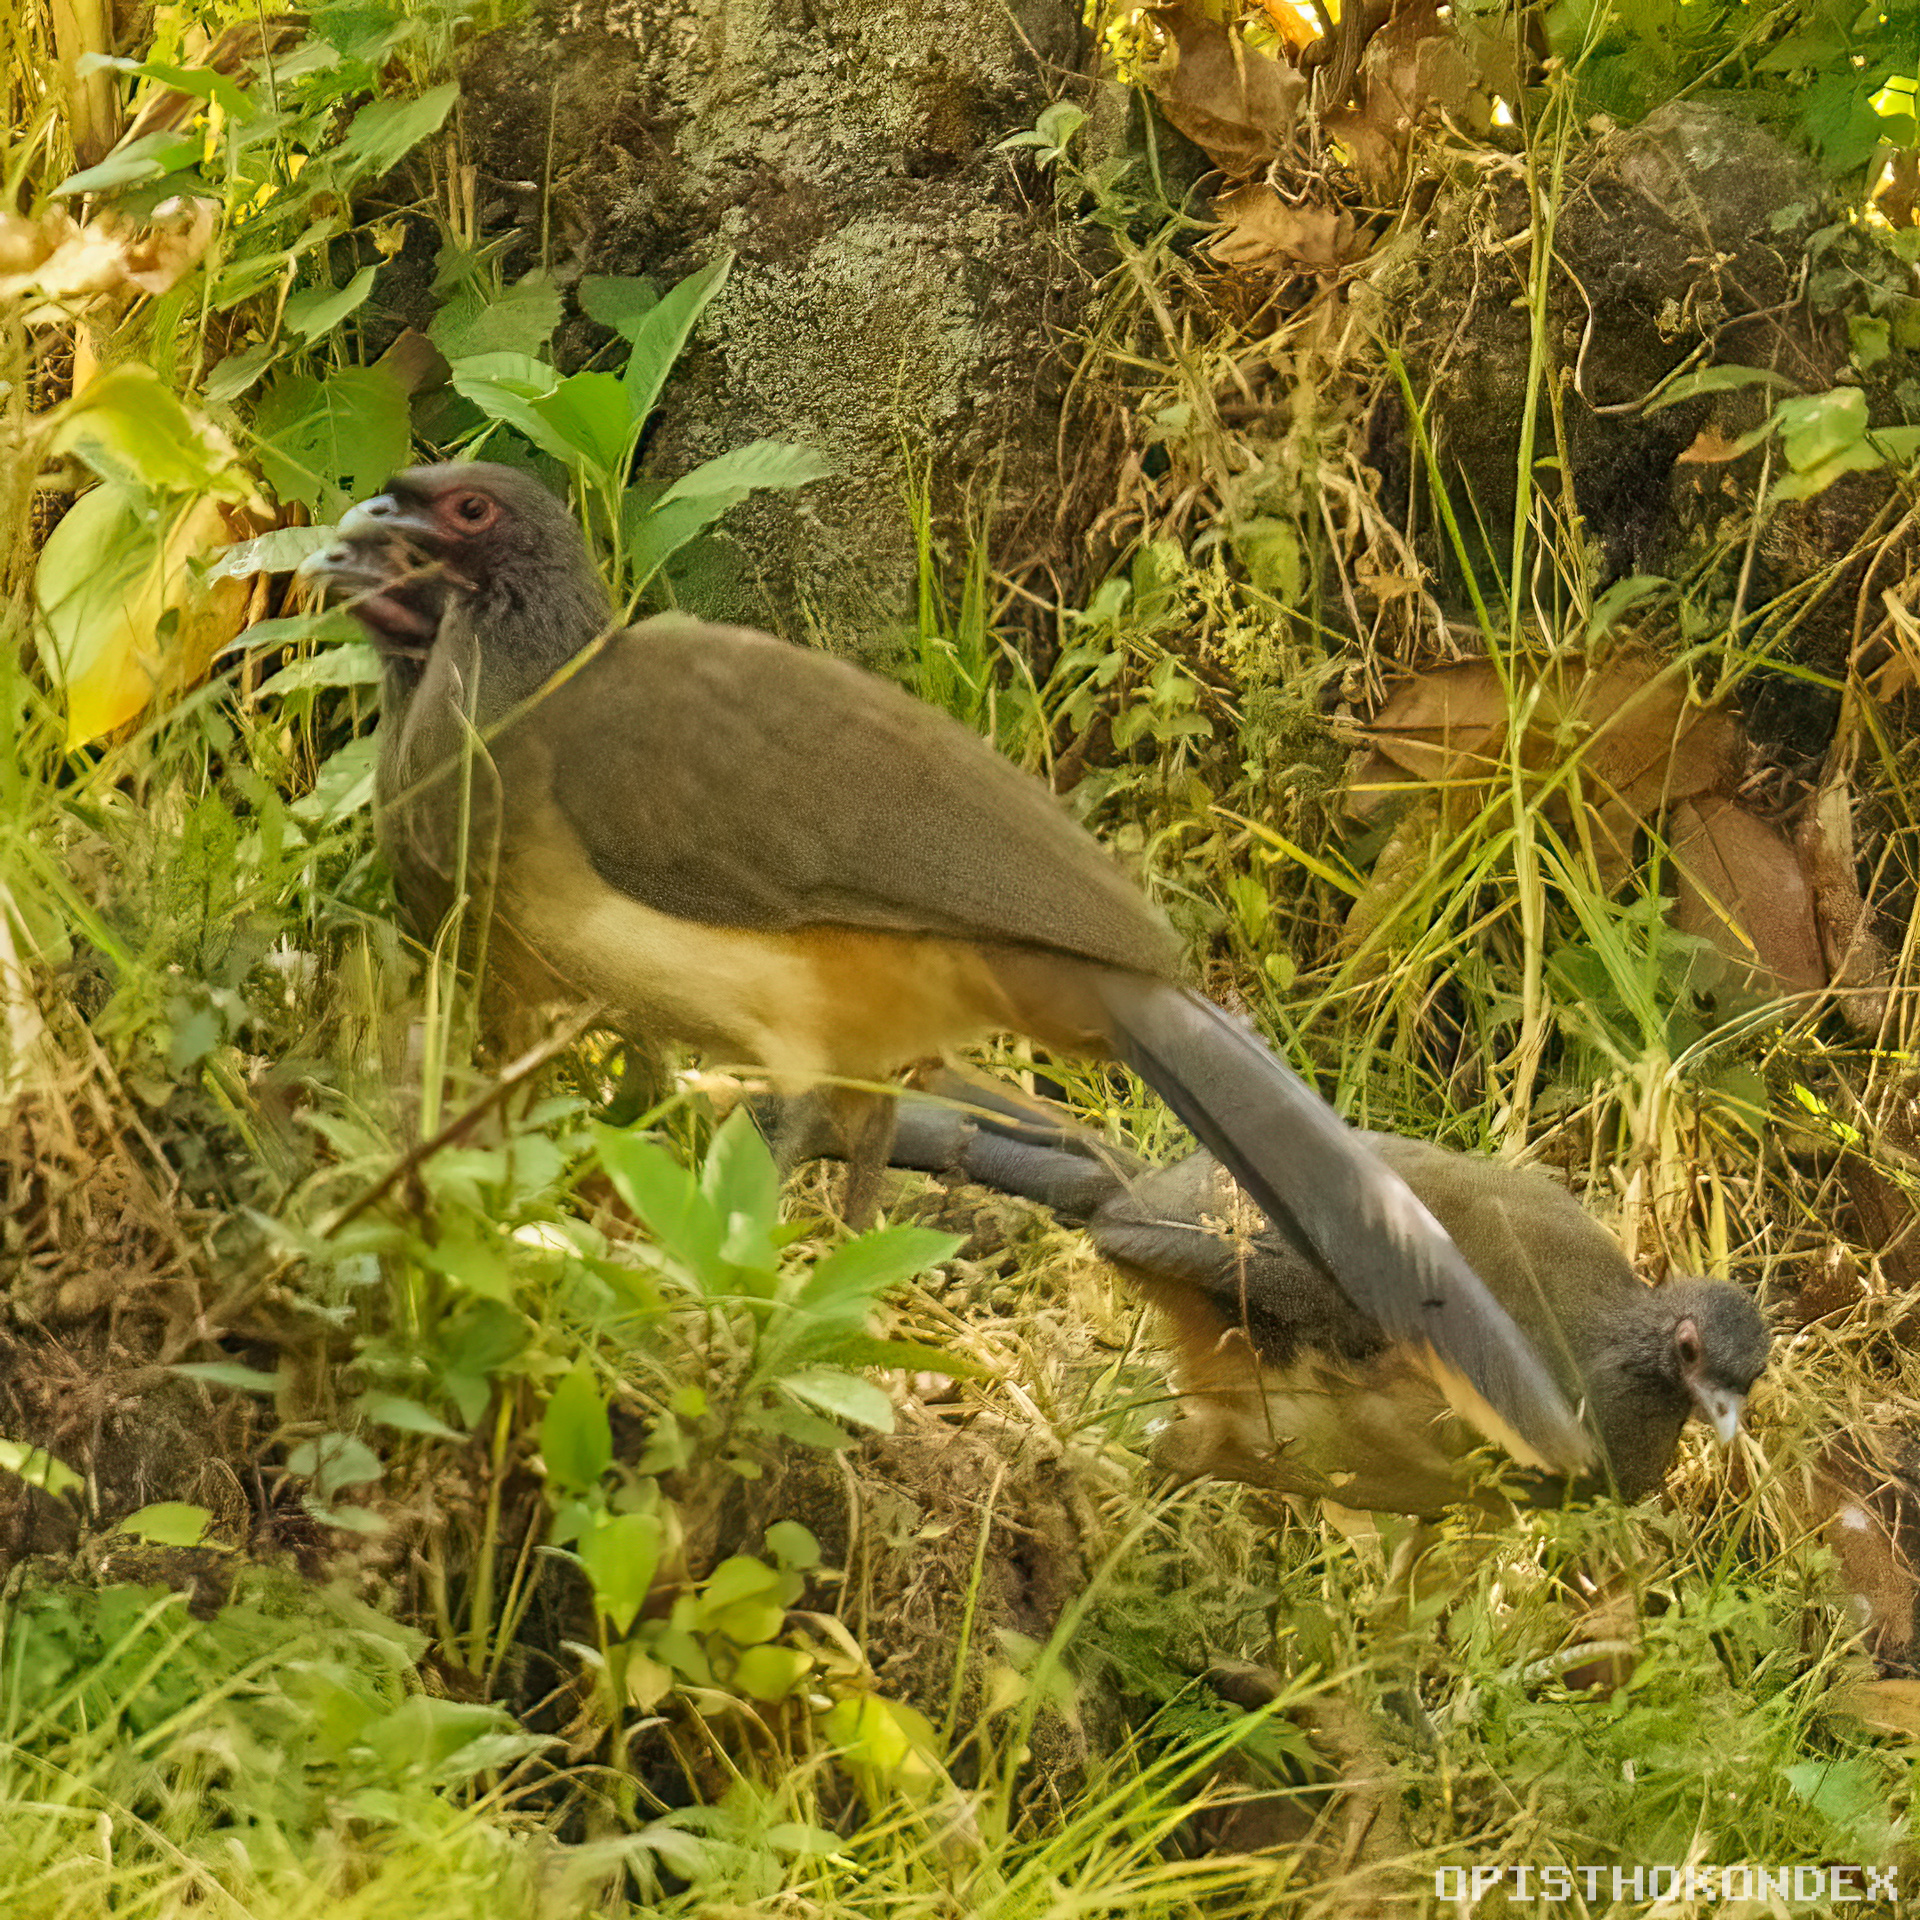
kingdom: Animalia
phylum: Chordata
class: Aves
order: Galliformes
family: Cracidae
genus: Ortalis
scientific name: Ortalis poliocephala
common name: West mexican chachalaca
